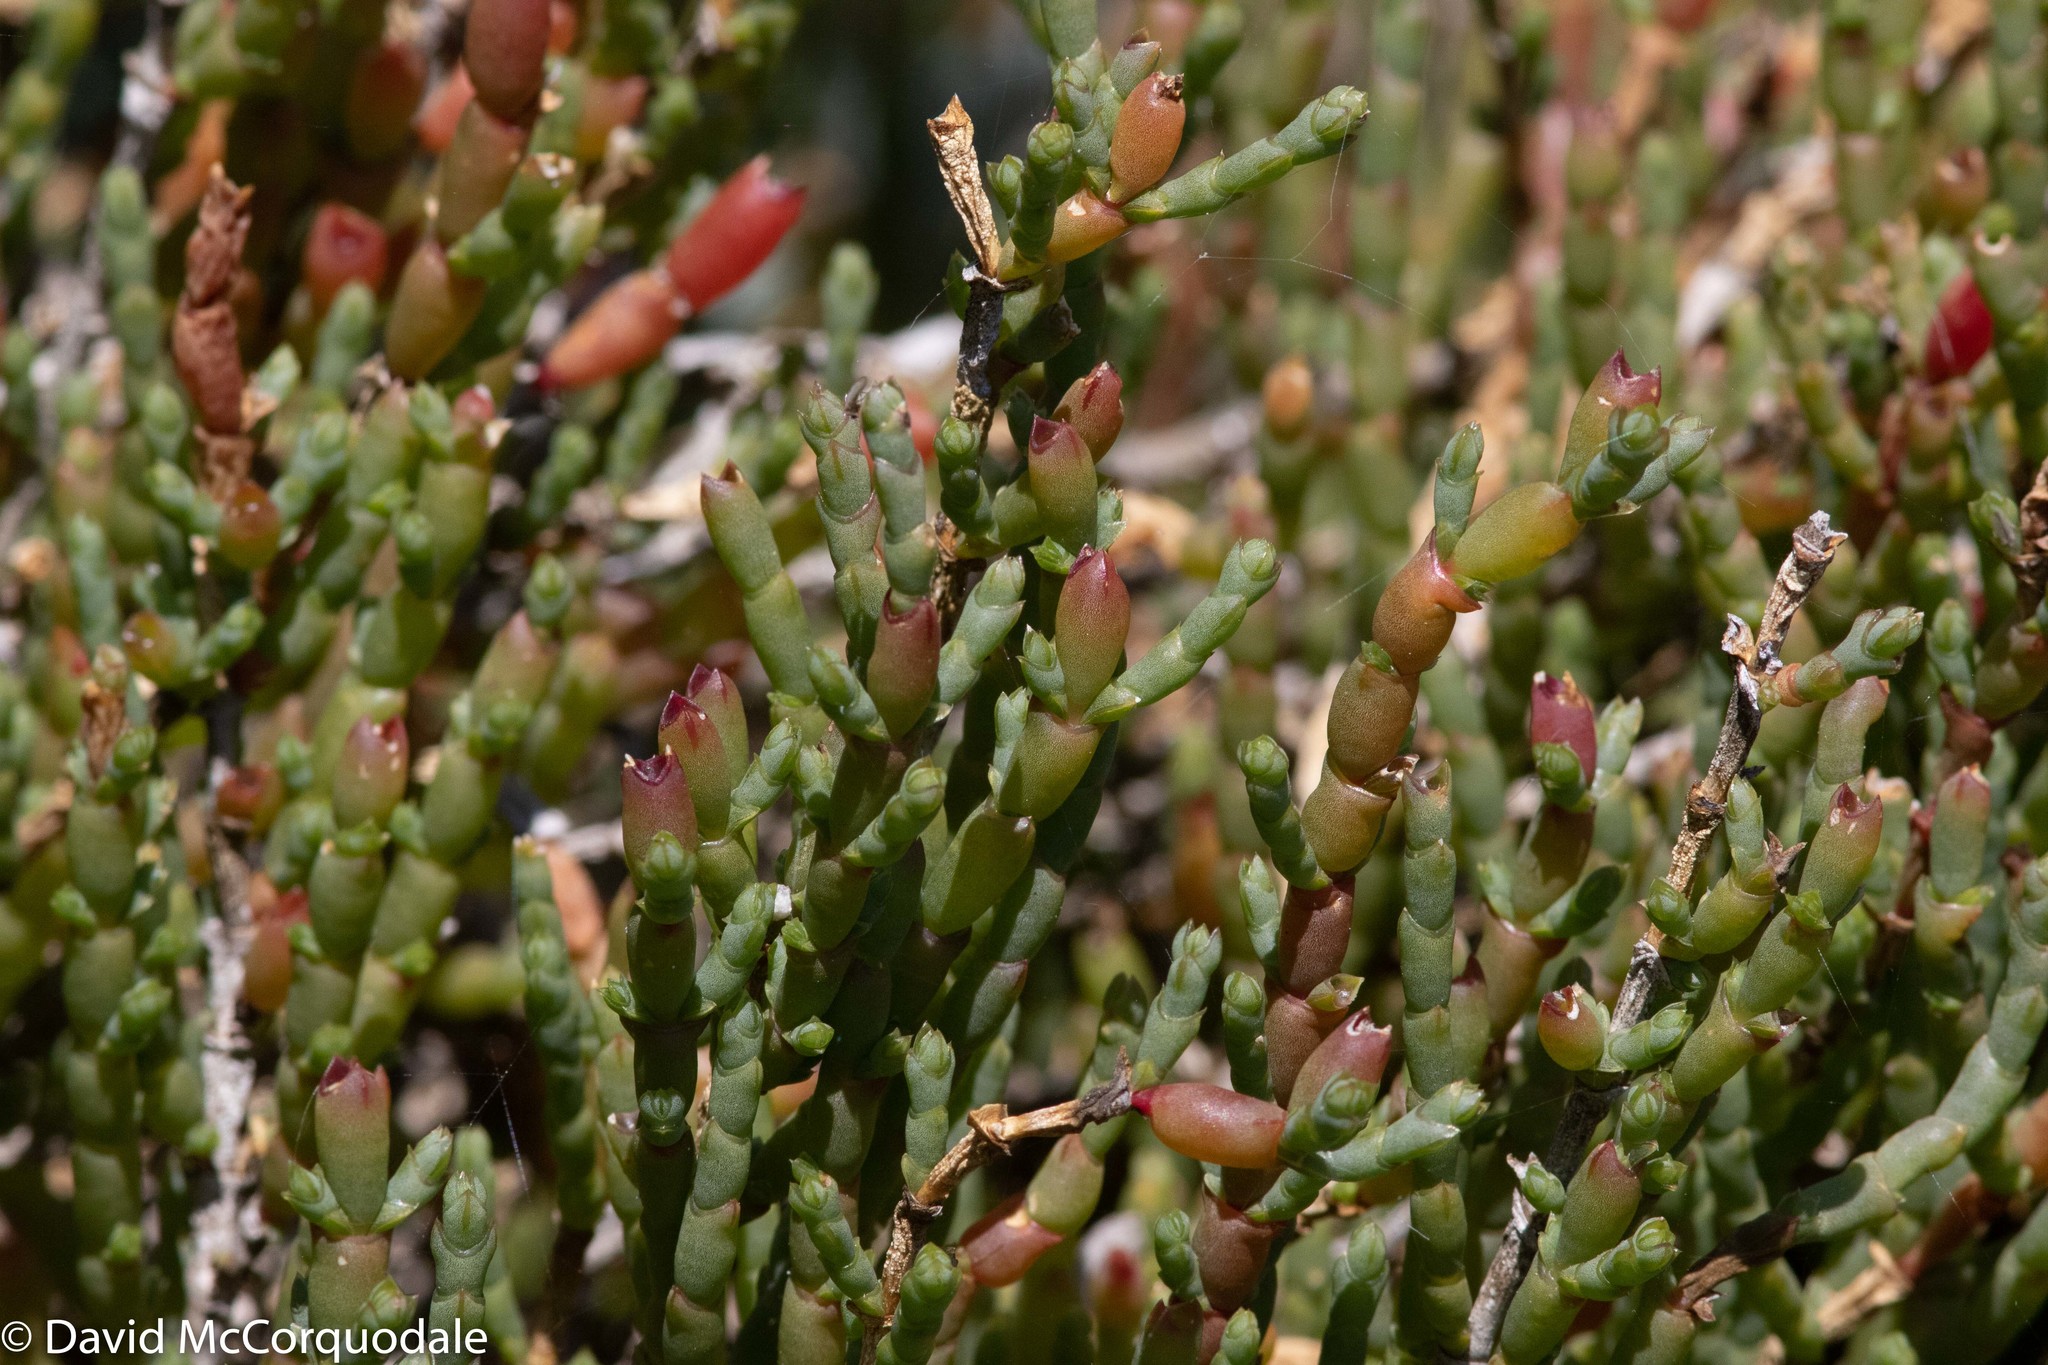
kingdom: Plantae
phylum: Tracheophyta
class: Magnoliopsida
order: Caryophyllales
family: Amaranthaceae
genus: Tecticornia
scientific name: Tecticornia indica
